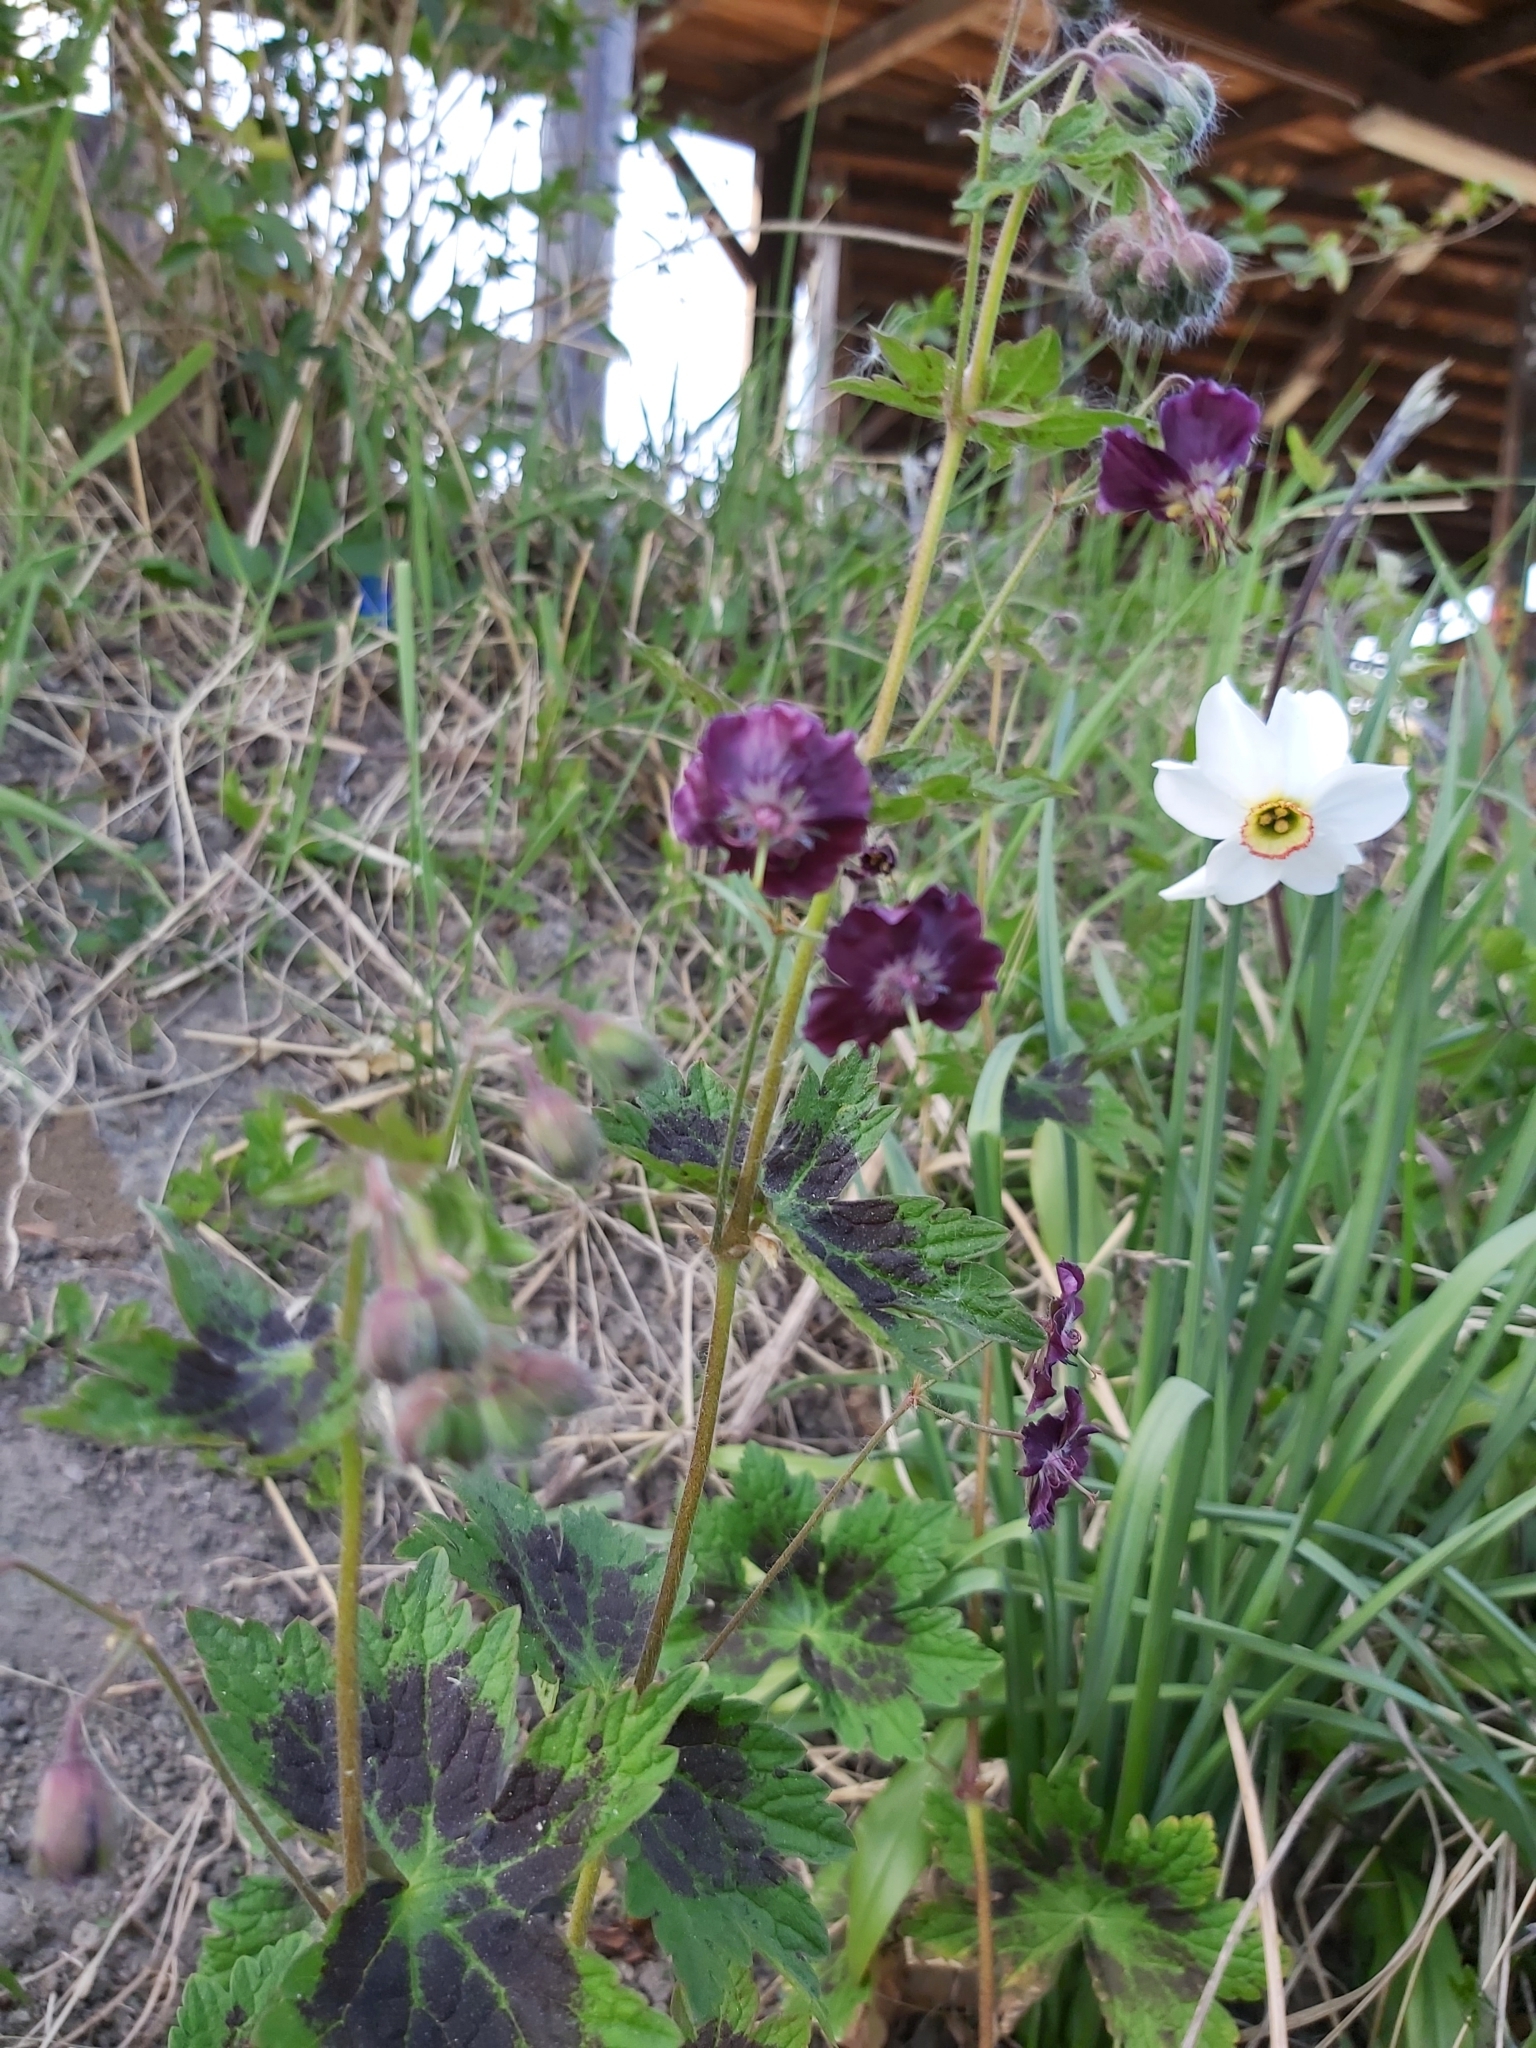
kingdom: Plantae
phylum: Tracheophyta
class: Magnoliopsida
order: Geraniales
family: Geraniaceae
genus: Geranium
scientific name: Geranium phaeum
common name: Dusky crane's-bill
